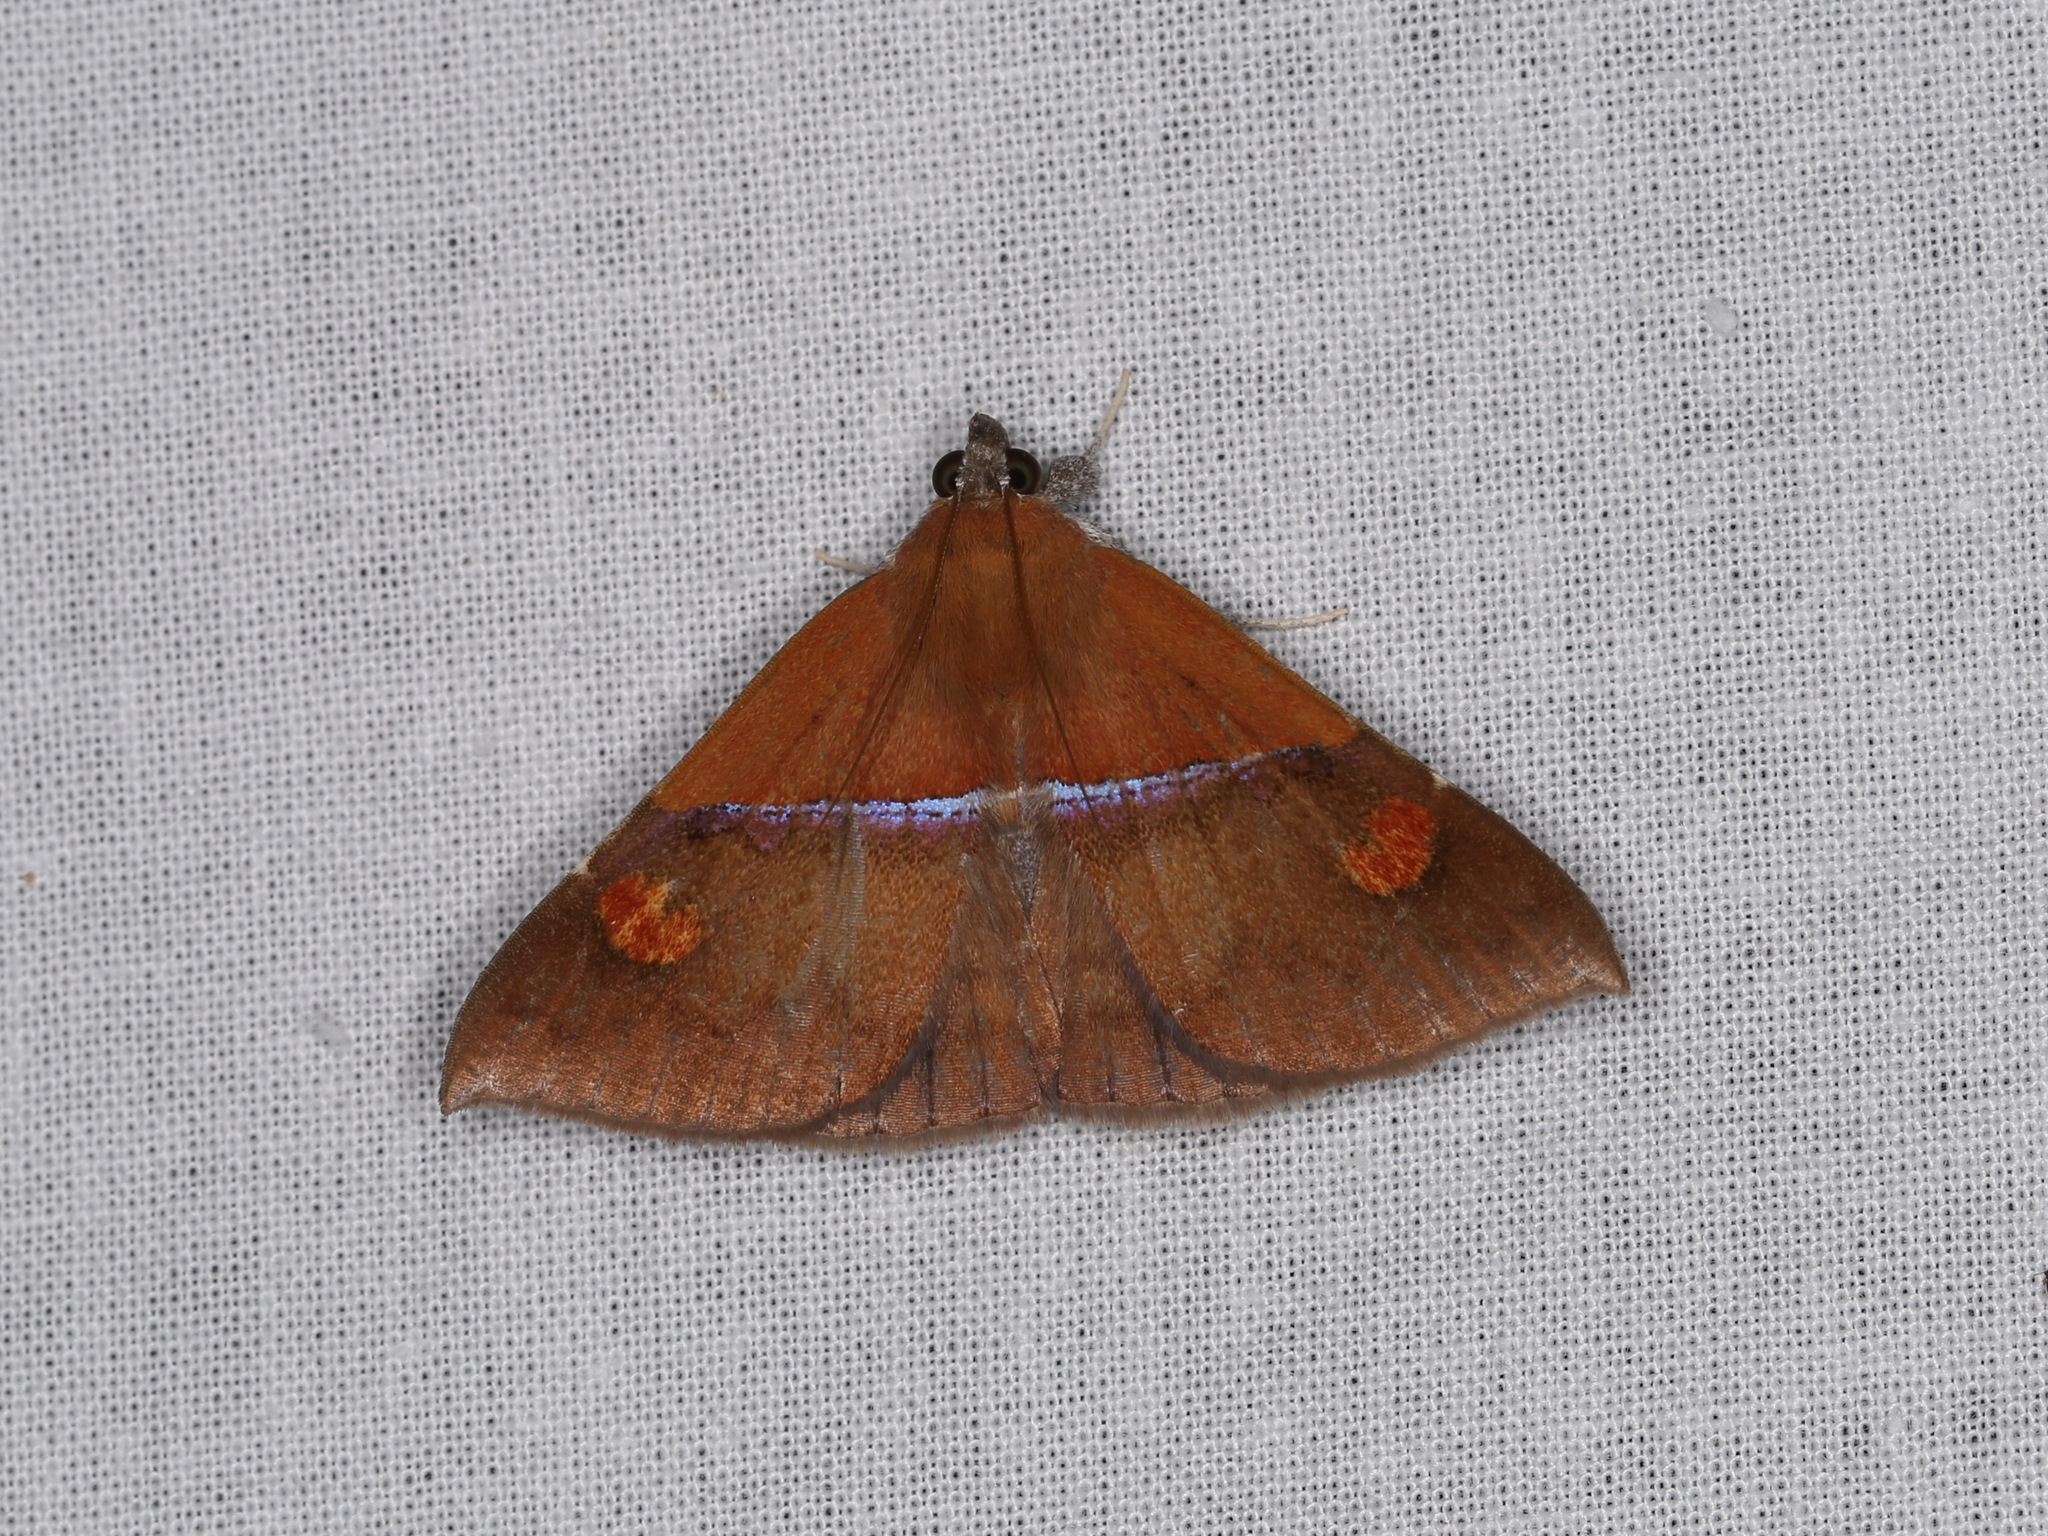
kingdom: Animalia
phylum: Arthropoda
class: Insecta
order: Lepidoptera
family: Erebidae
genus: Sympis
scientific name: Sympis rufibasis
